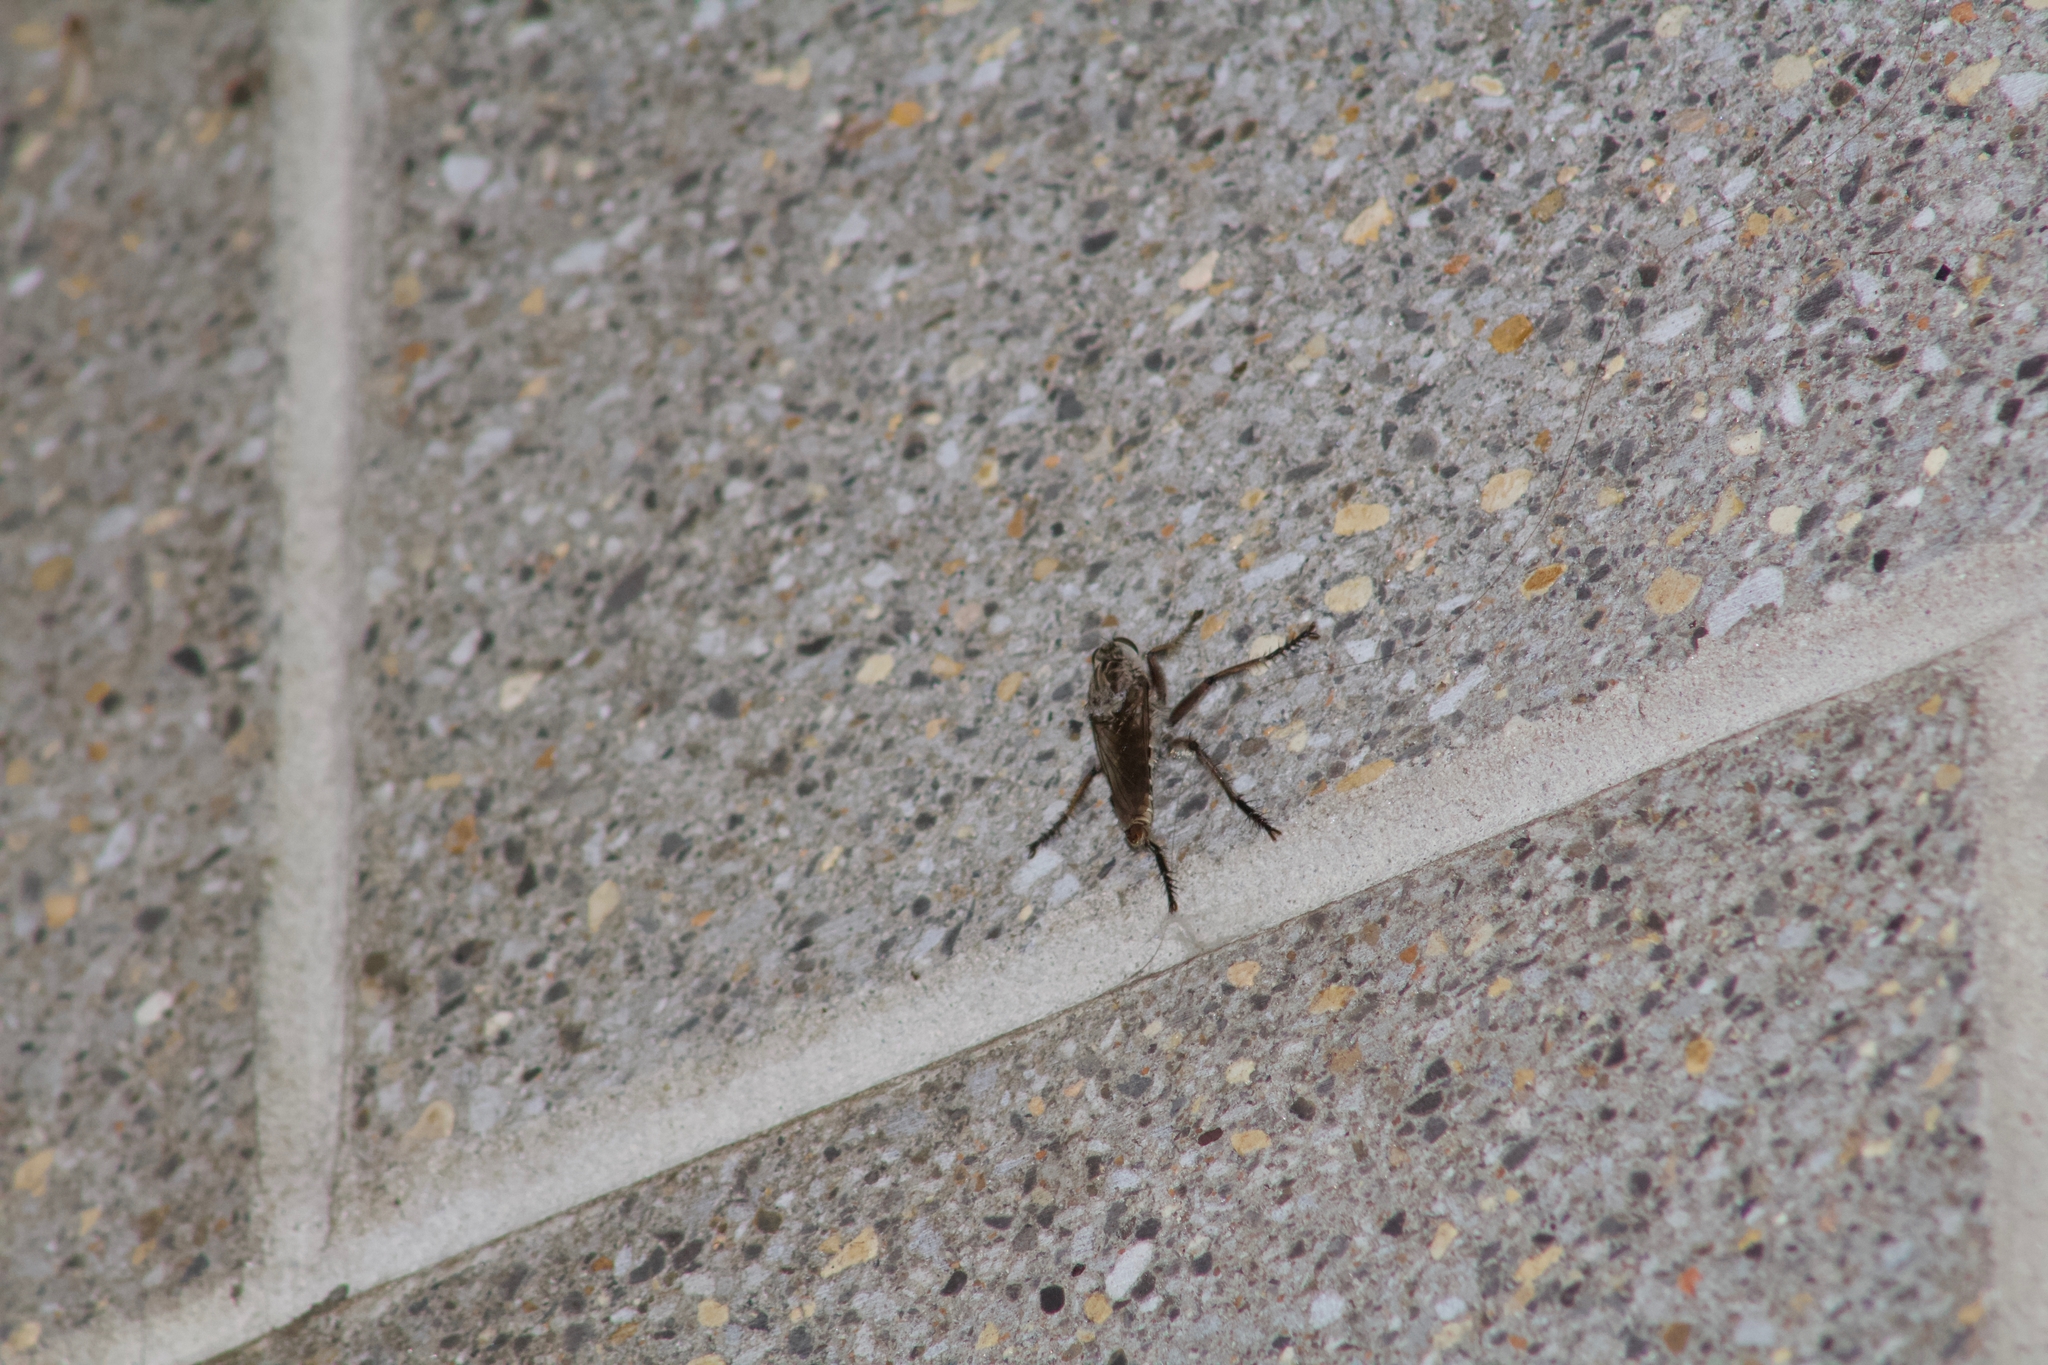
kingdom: Animalia
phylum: Arthropoda
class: Insecta
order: Diptera
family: Asilidae
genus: Triorla
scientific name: Triorla interrupta
